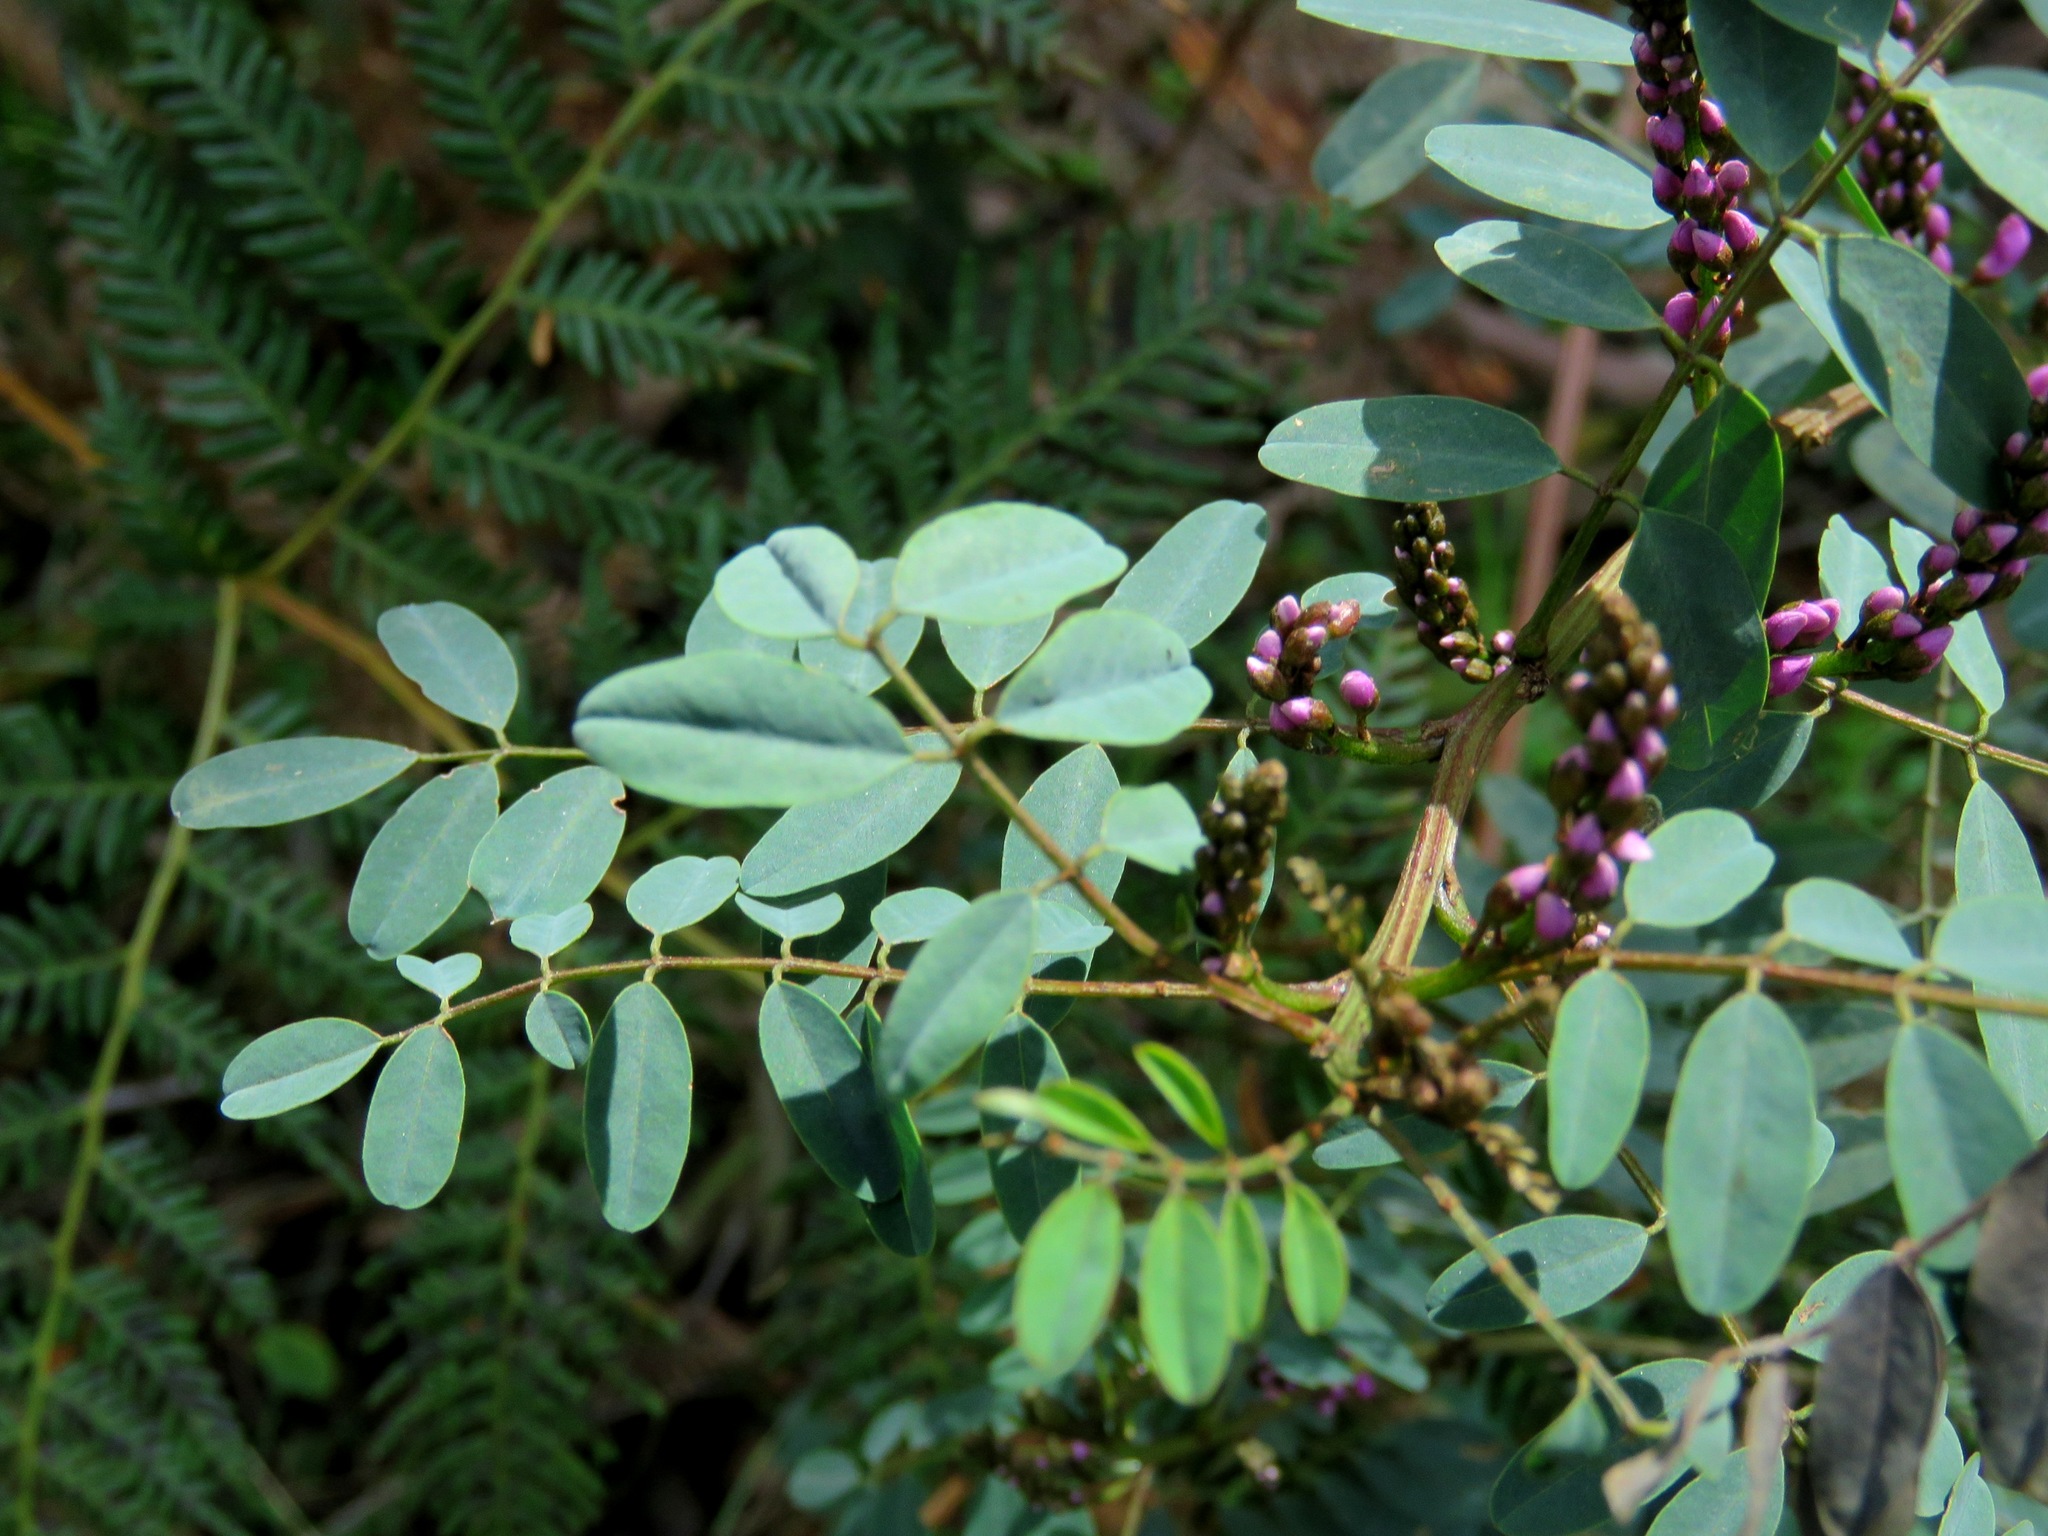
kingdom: Plantae
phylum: Tracheophyta
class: Magnoliopsida
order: Fabales
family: Fabaceae
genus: Indigofera
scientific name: Indigofera australis
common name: Australian indigo
